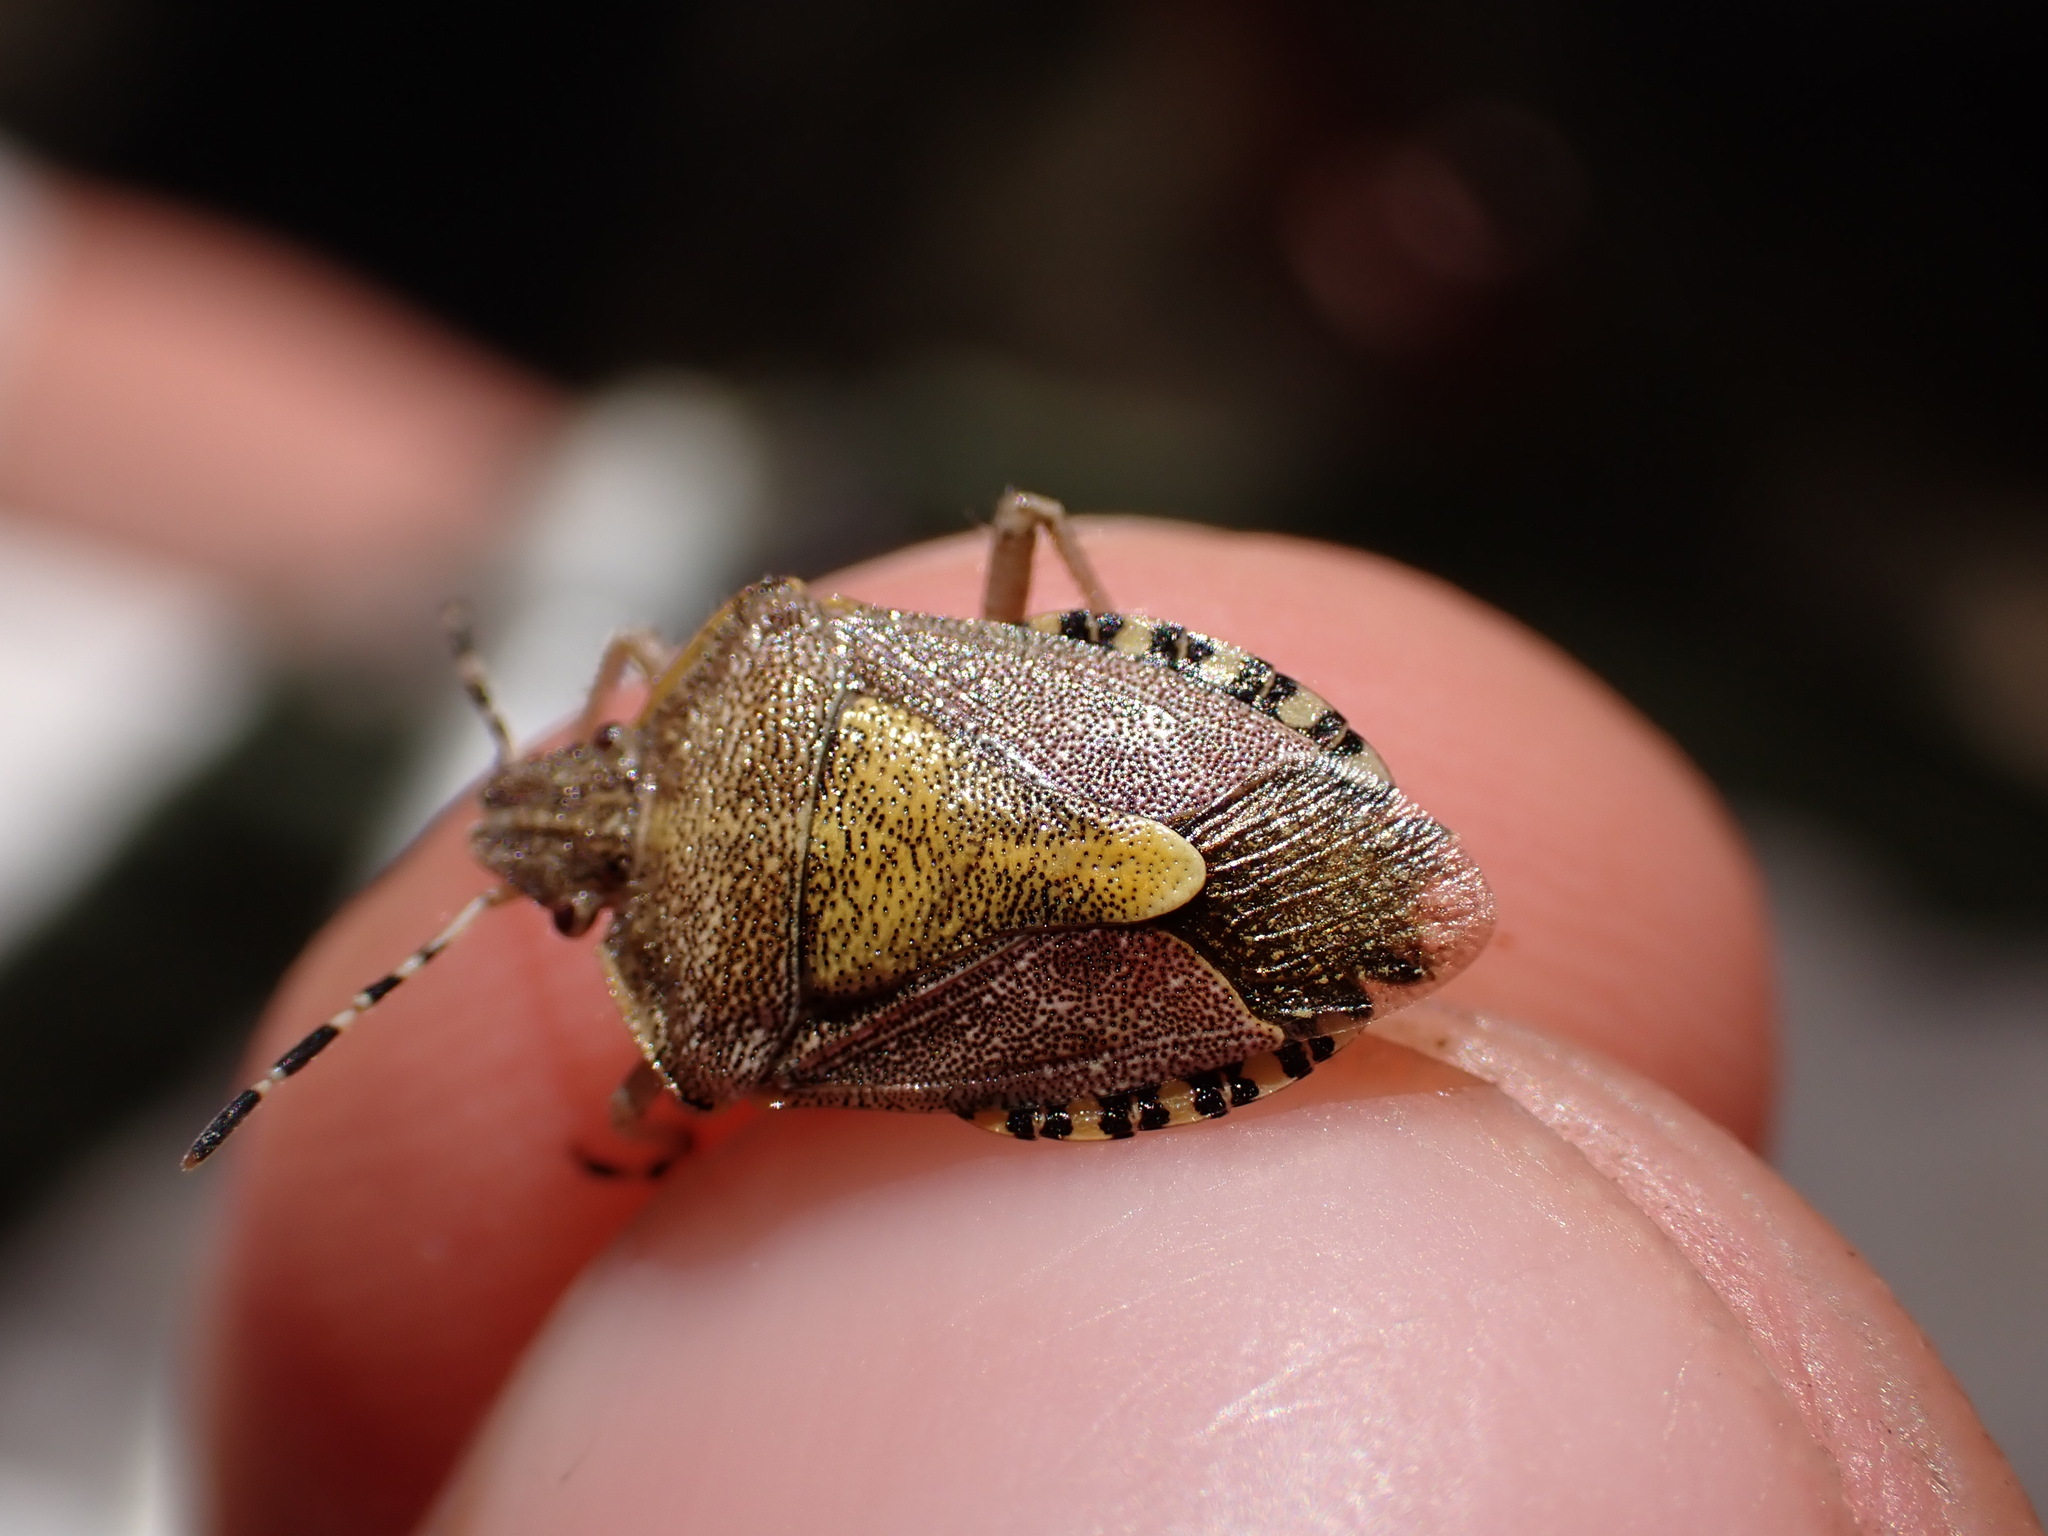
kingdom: Animalia
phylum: Arthropoda
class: Insecta
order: Hemiptera
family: Pentatomidae
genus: Dolycoris
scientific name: Dolycoris baccarum
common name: Sloe bug
